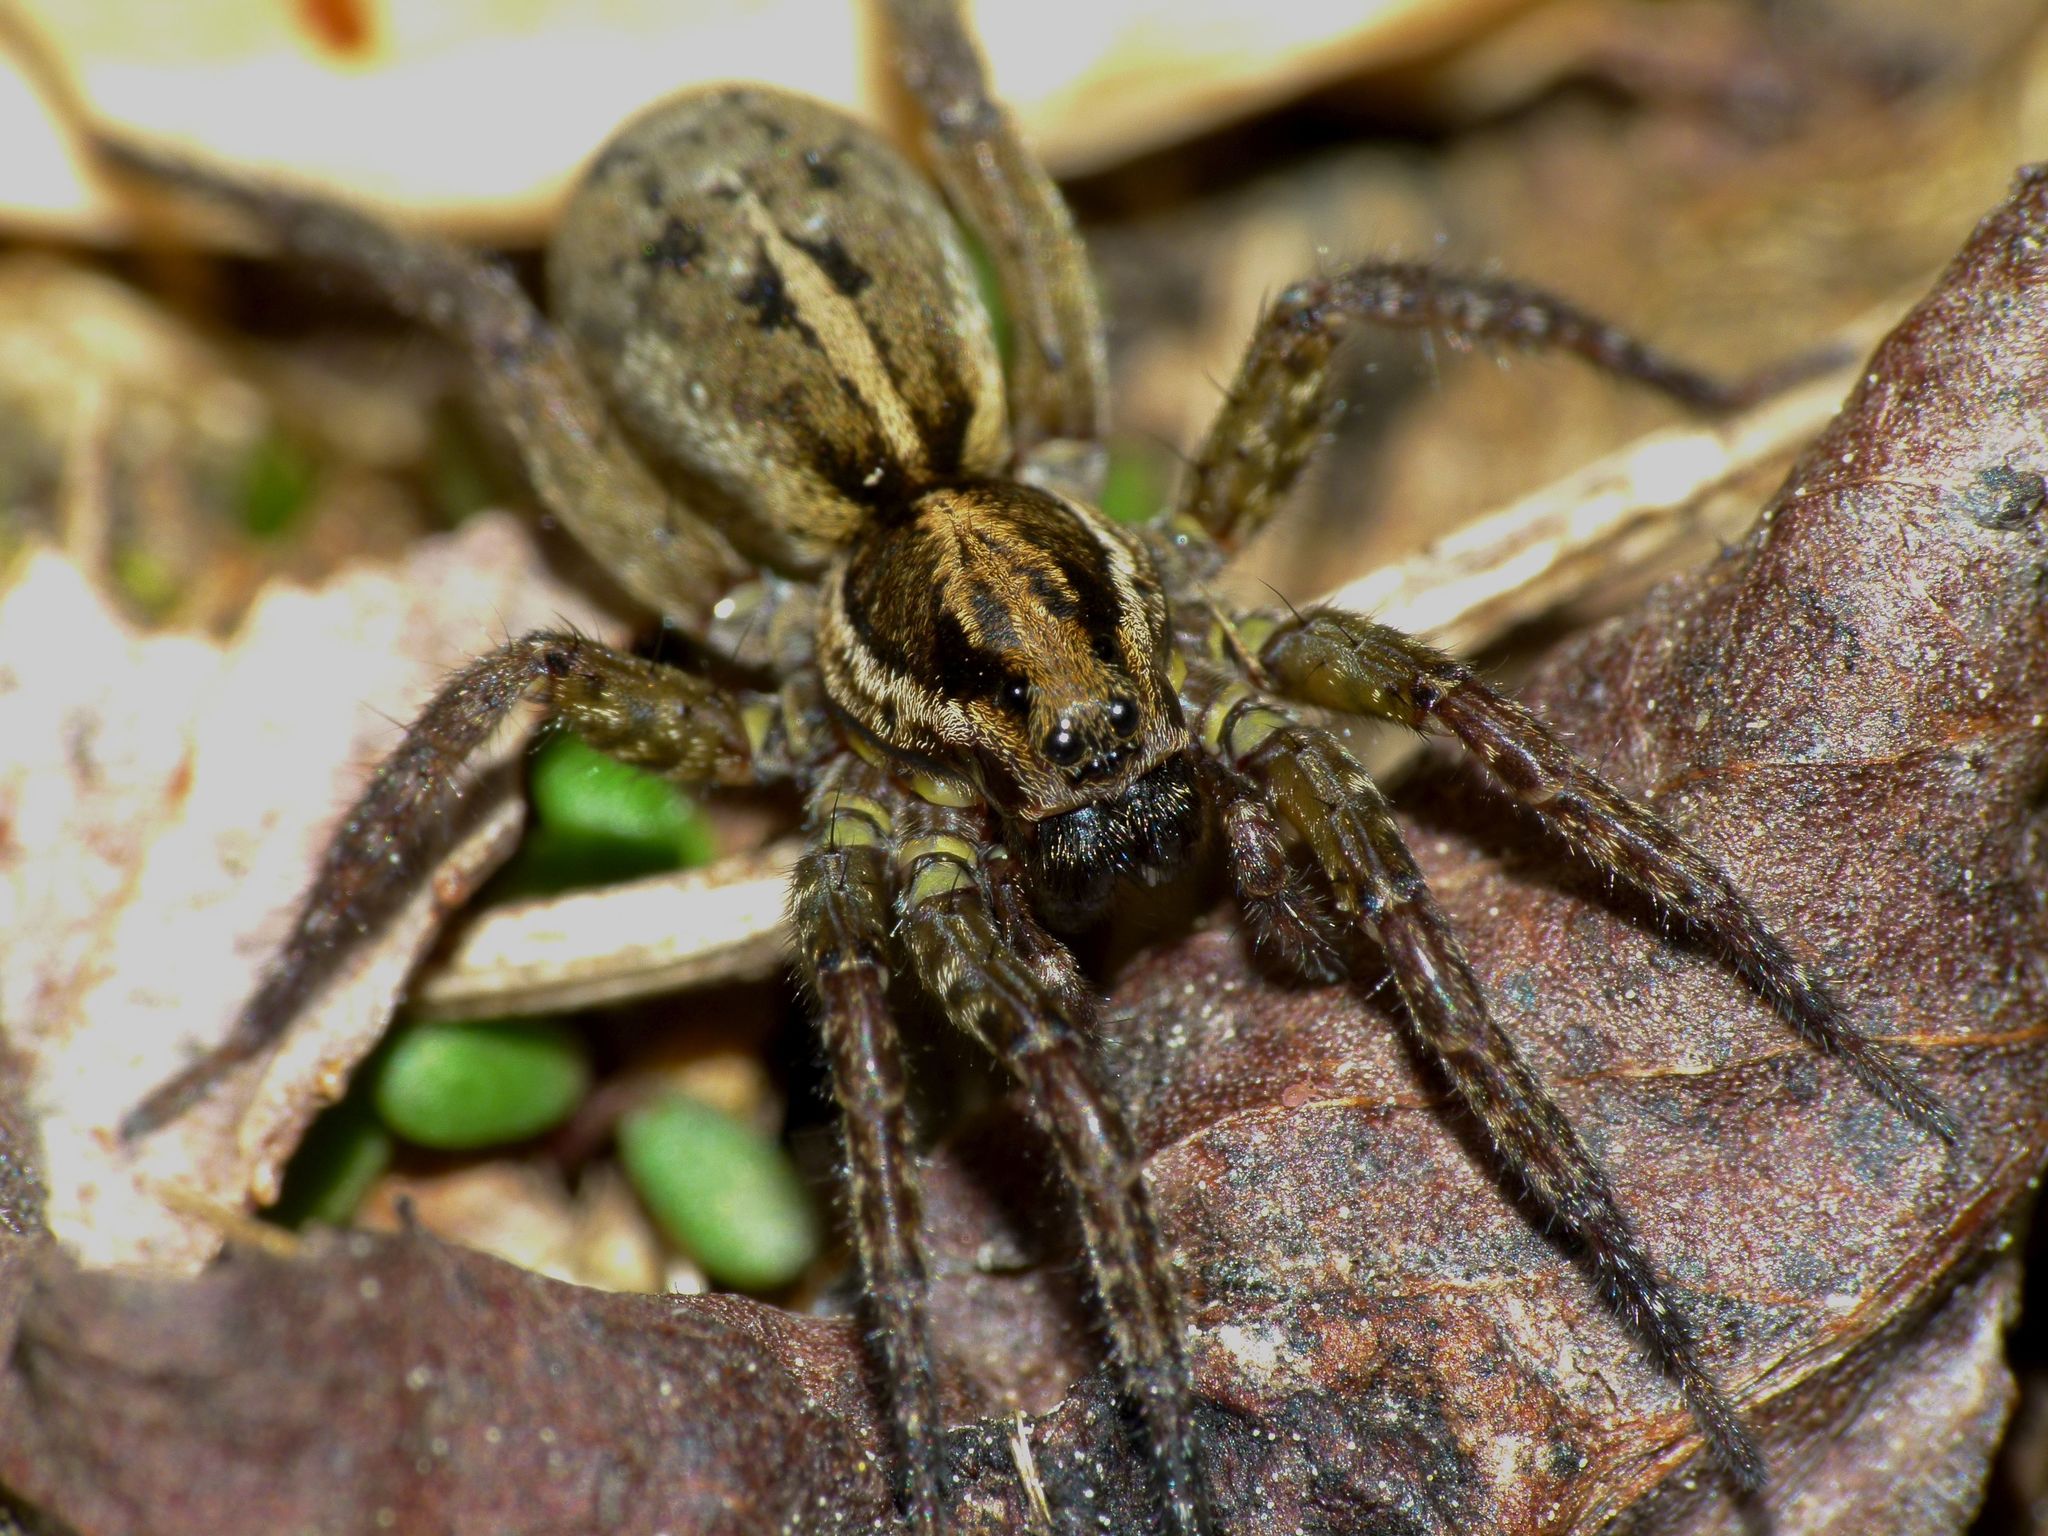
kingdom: Animalia
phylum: Arthropoda
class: Arachnida
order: Araneae
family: Lycosidae
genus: Anoteropsis
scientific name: Anoteropsis hilaris
